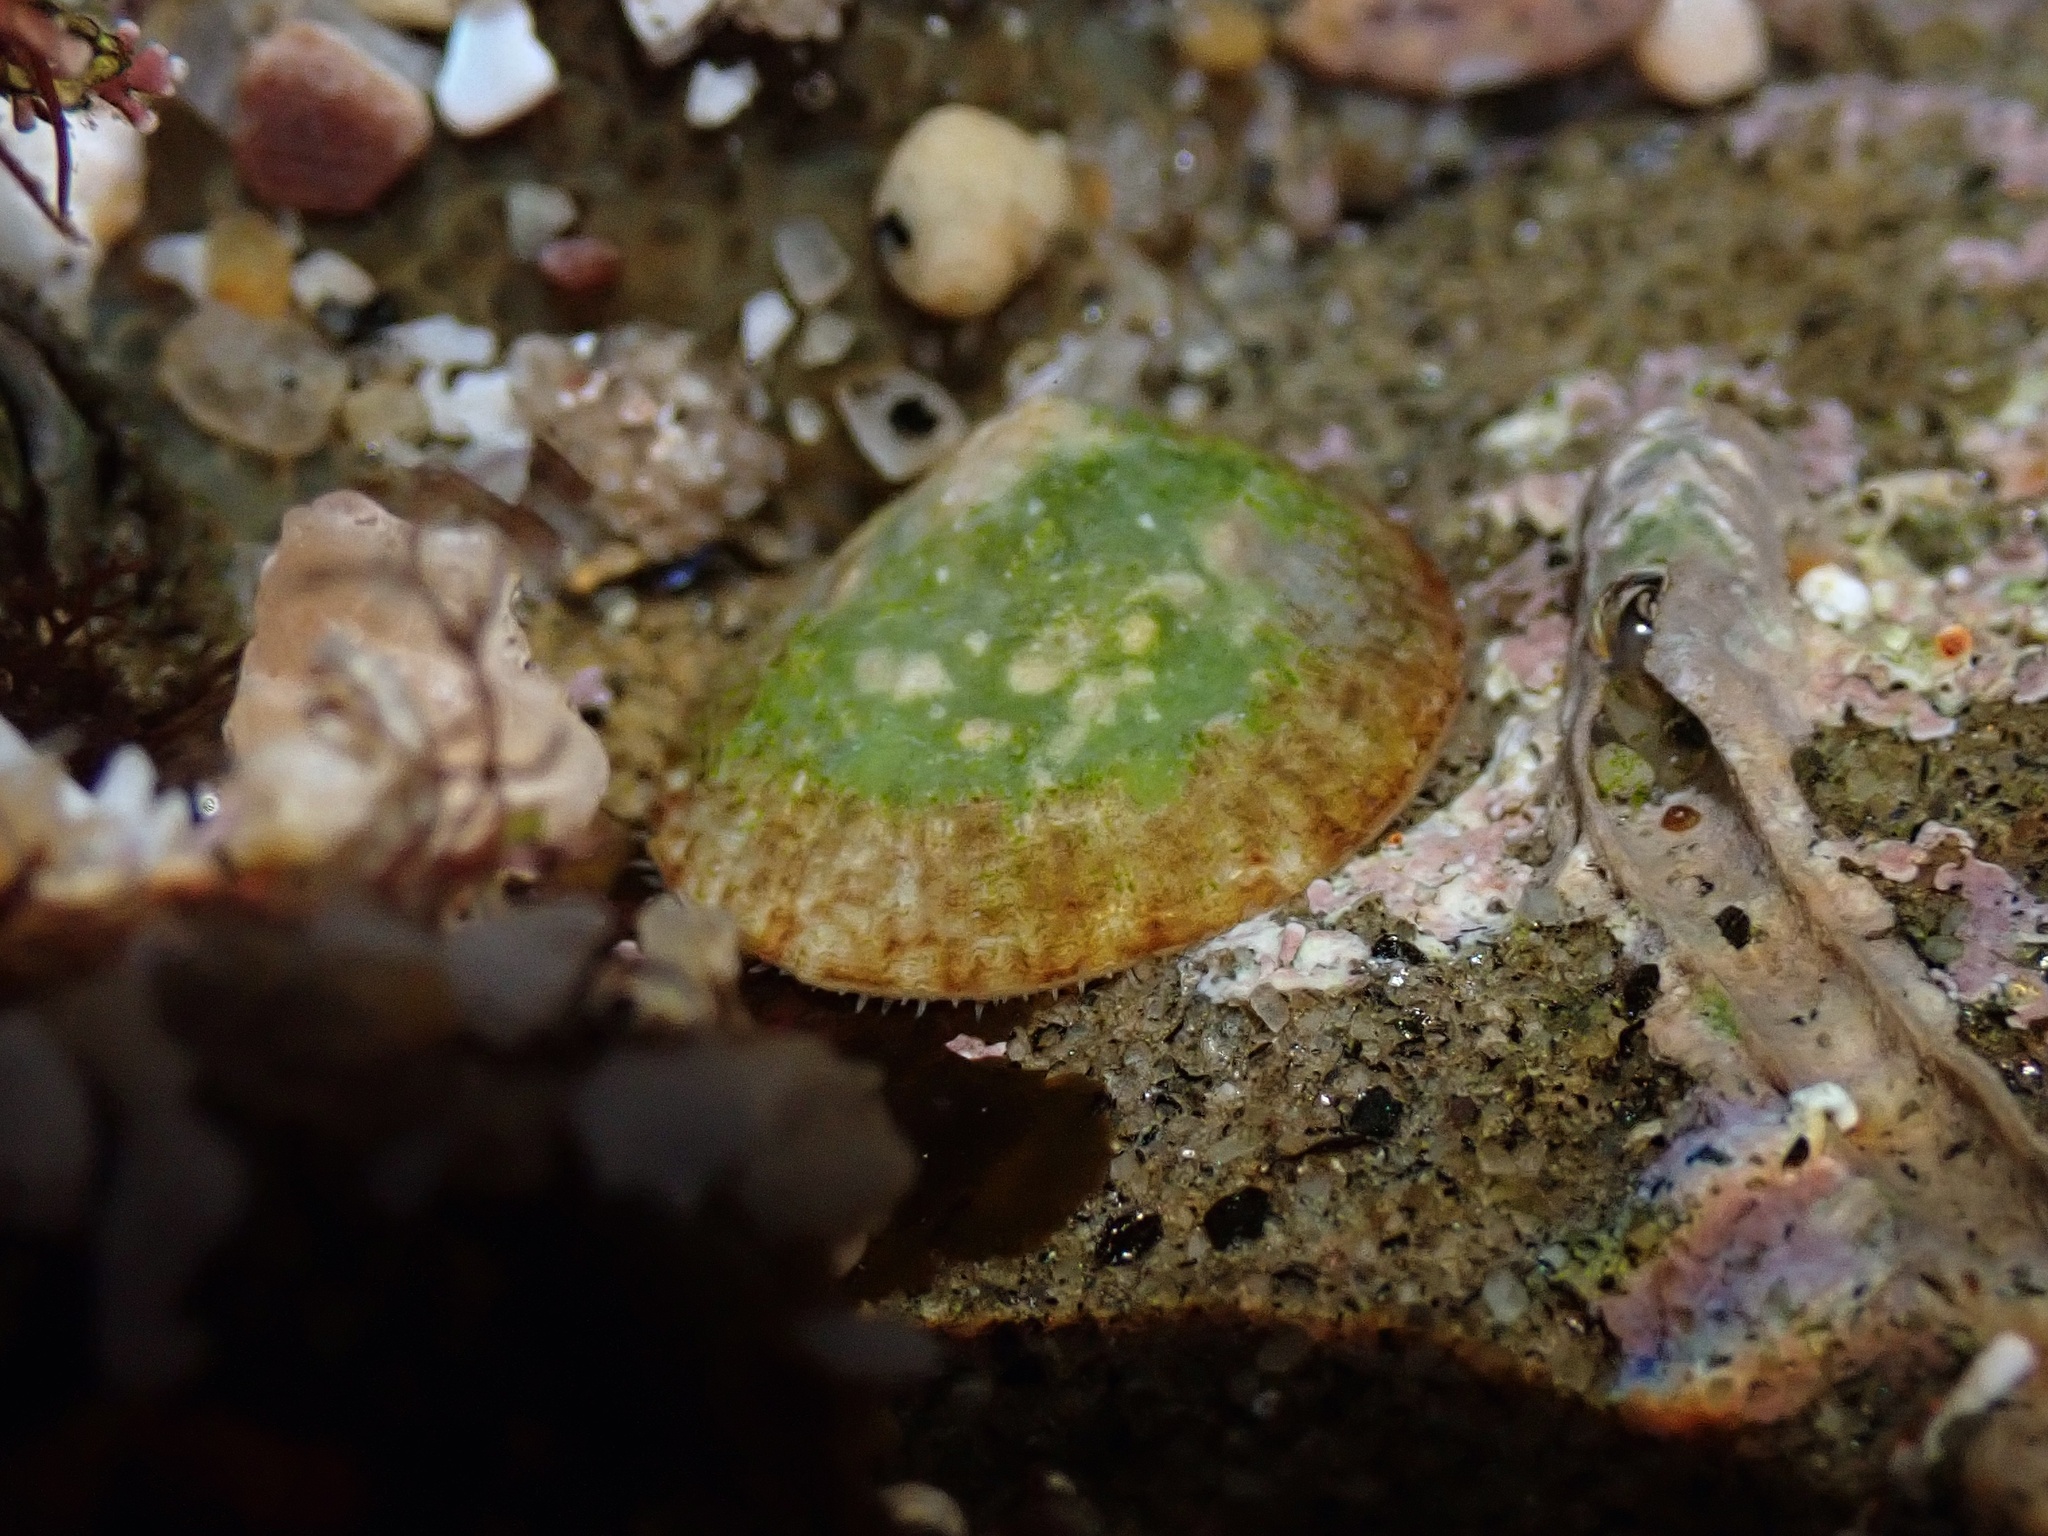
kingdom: Animalia
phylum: Mollusca
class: Gastropoda
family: Lottiidae
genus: Lottia
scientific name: Lottia limatula
